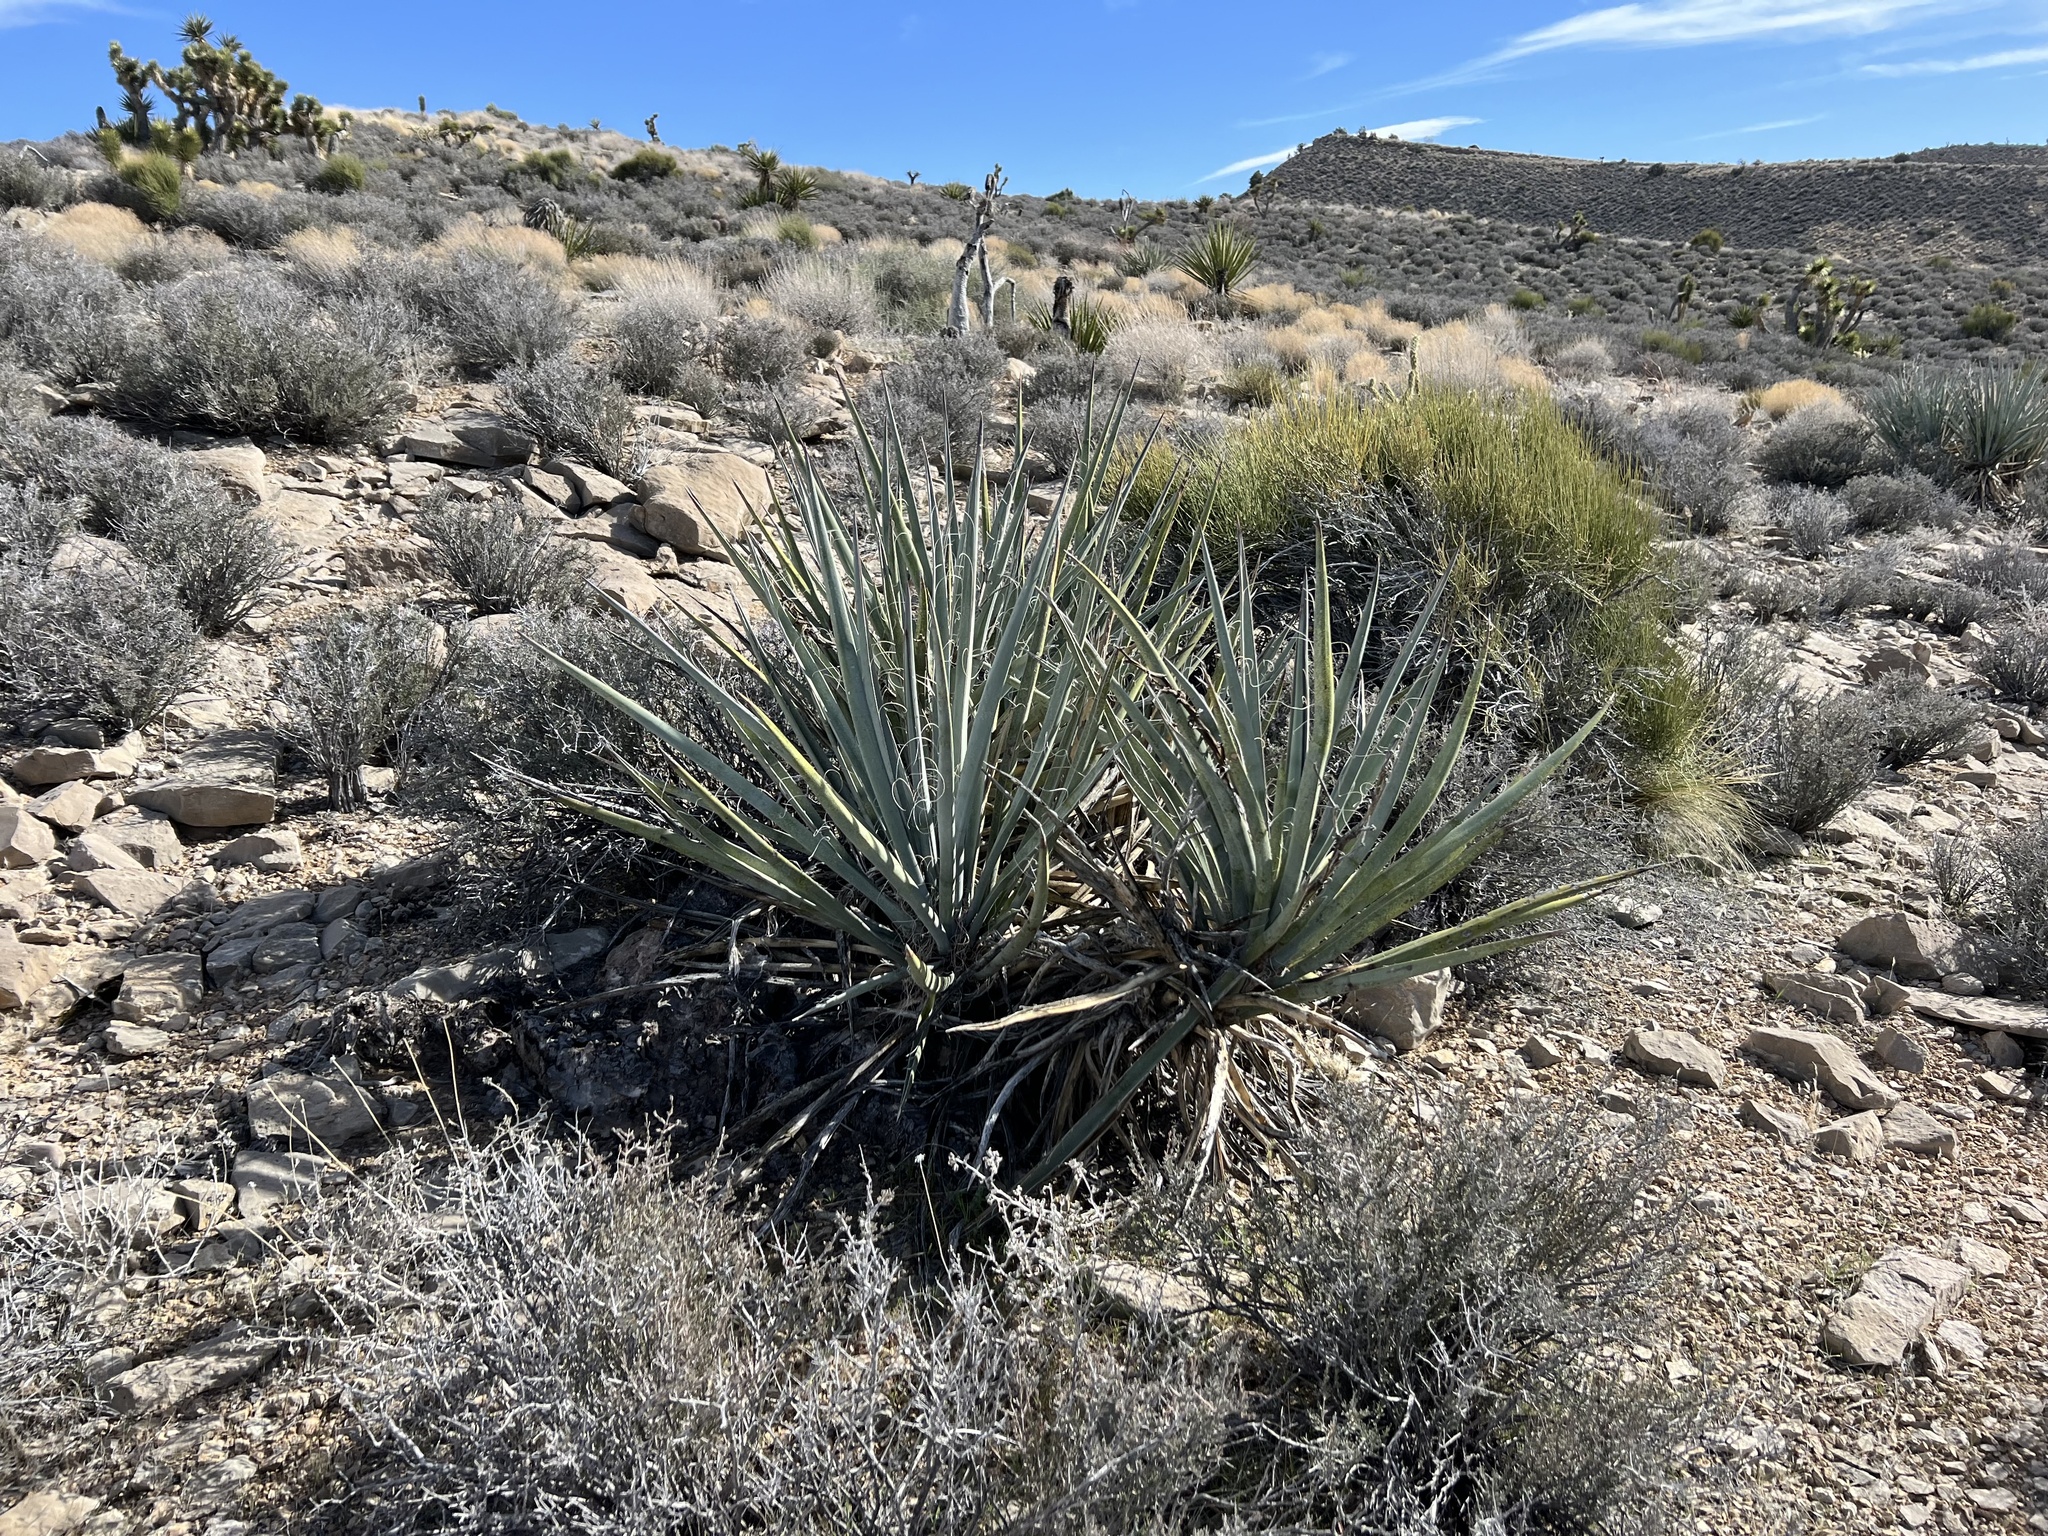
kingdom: Plantae
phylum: Tracheophyta
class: Liliopsida
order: Asparagales
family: Asparagaceae
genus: Yucca
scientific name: Yucca baccata
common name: Banana yucca
